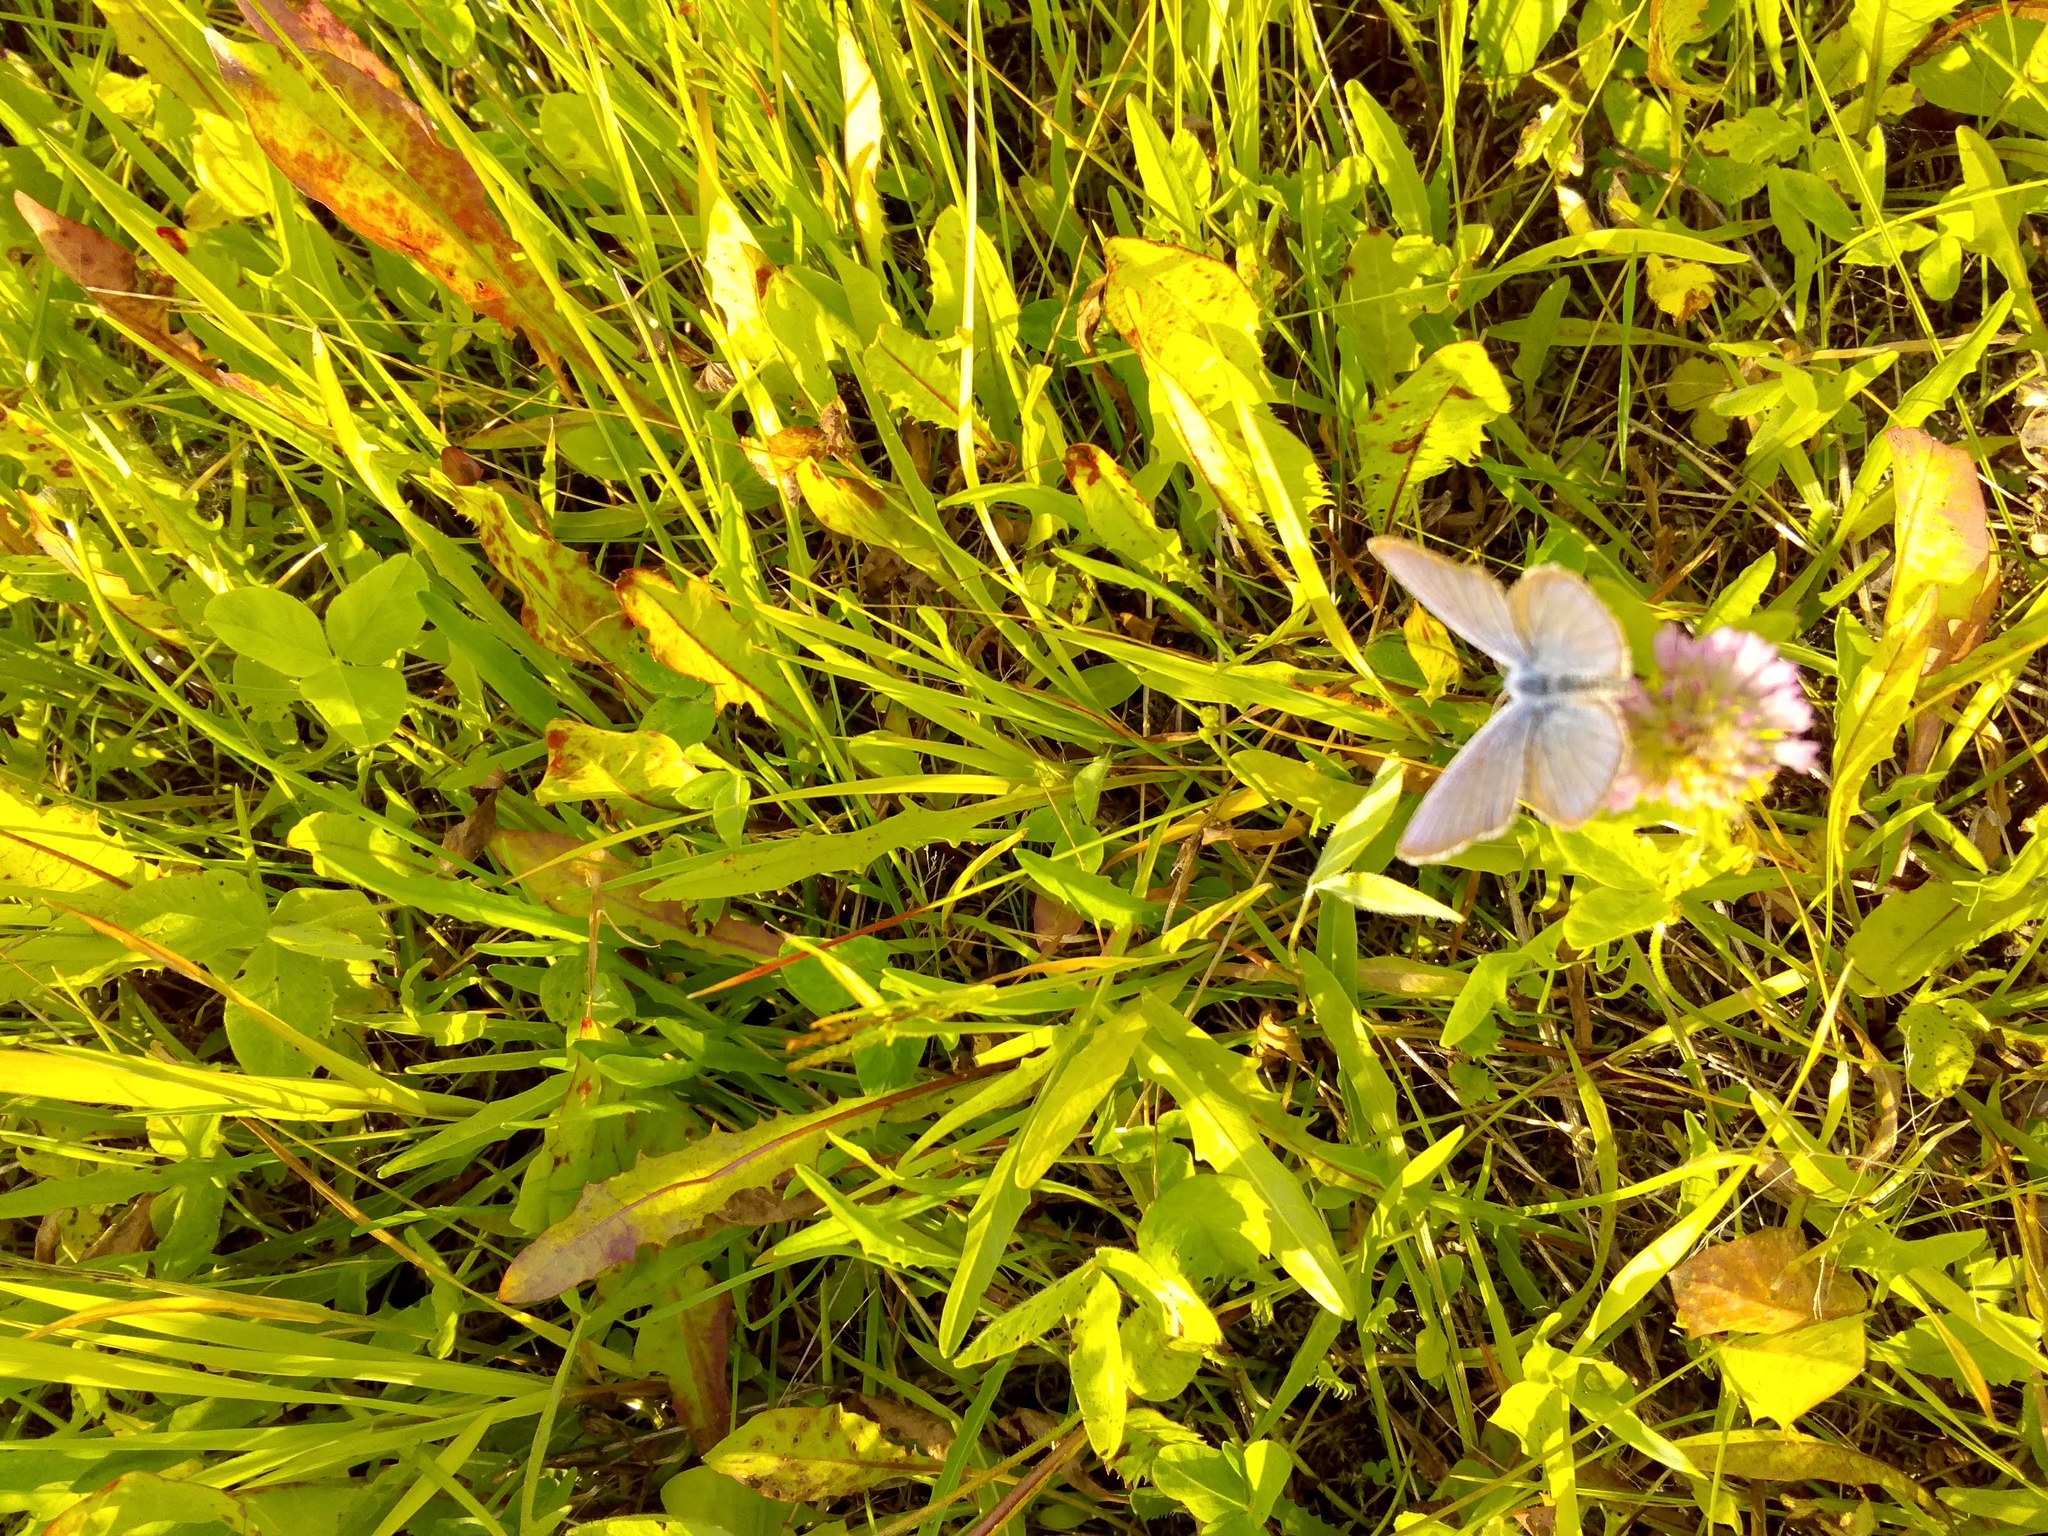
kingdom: Animalia
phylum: Arthropoda
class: Insecta
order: Lepidoptera
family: Lycaenidae
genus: Cyaniris
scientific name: Cyaniris semiargus
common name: Mazarine blue
